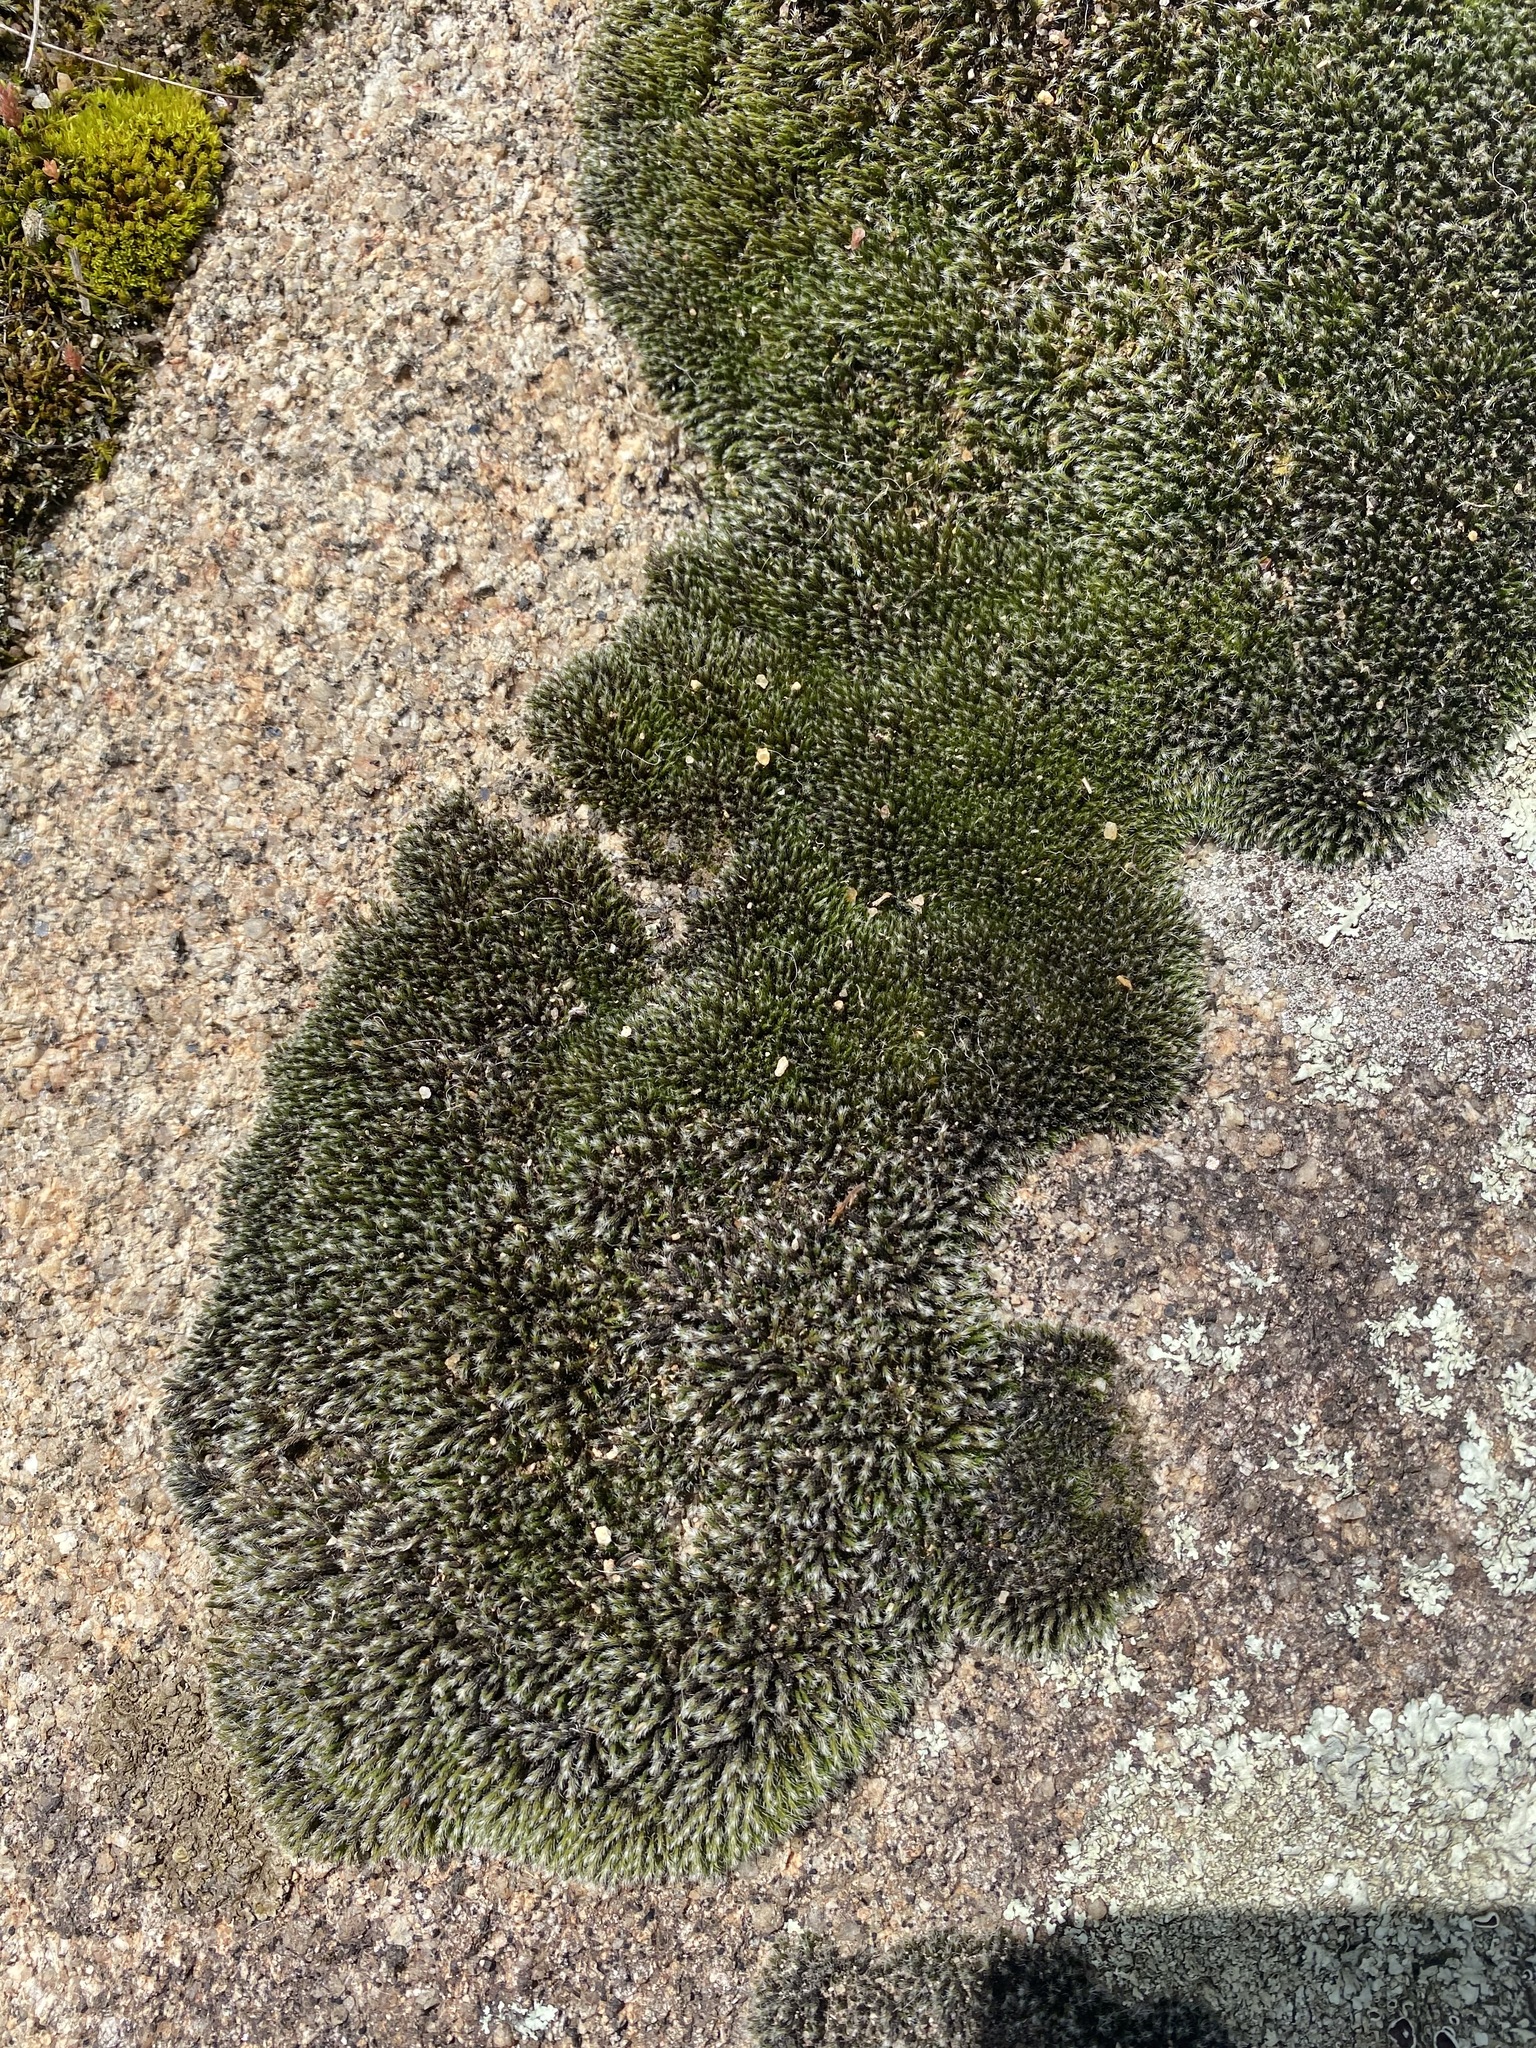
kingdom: Plantae
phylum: Bryophyta
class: Bryopsida
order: Grimmiales
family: Grimmiaceae
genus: Grimmia
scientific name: Grimmia pulvinata
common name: Grey-cushioned grimmia
